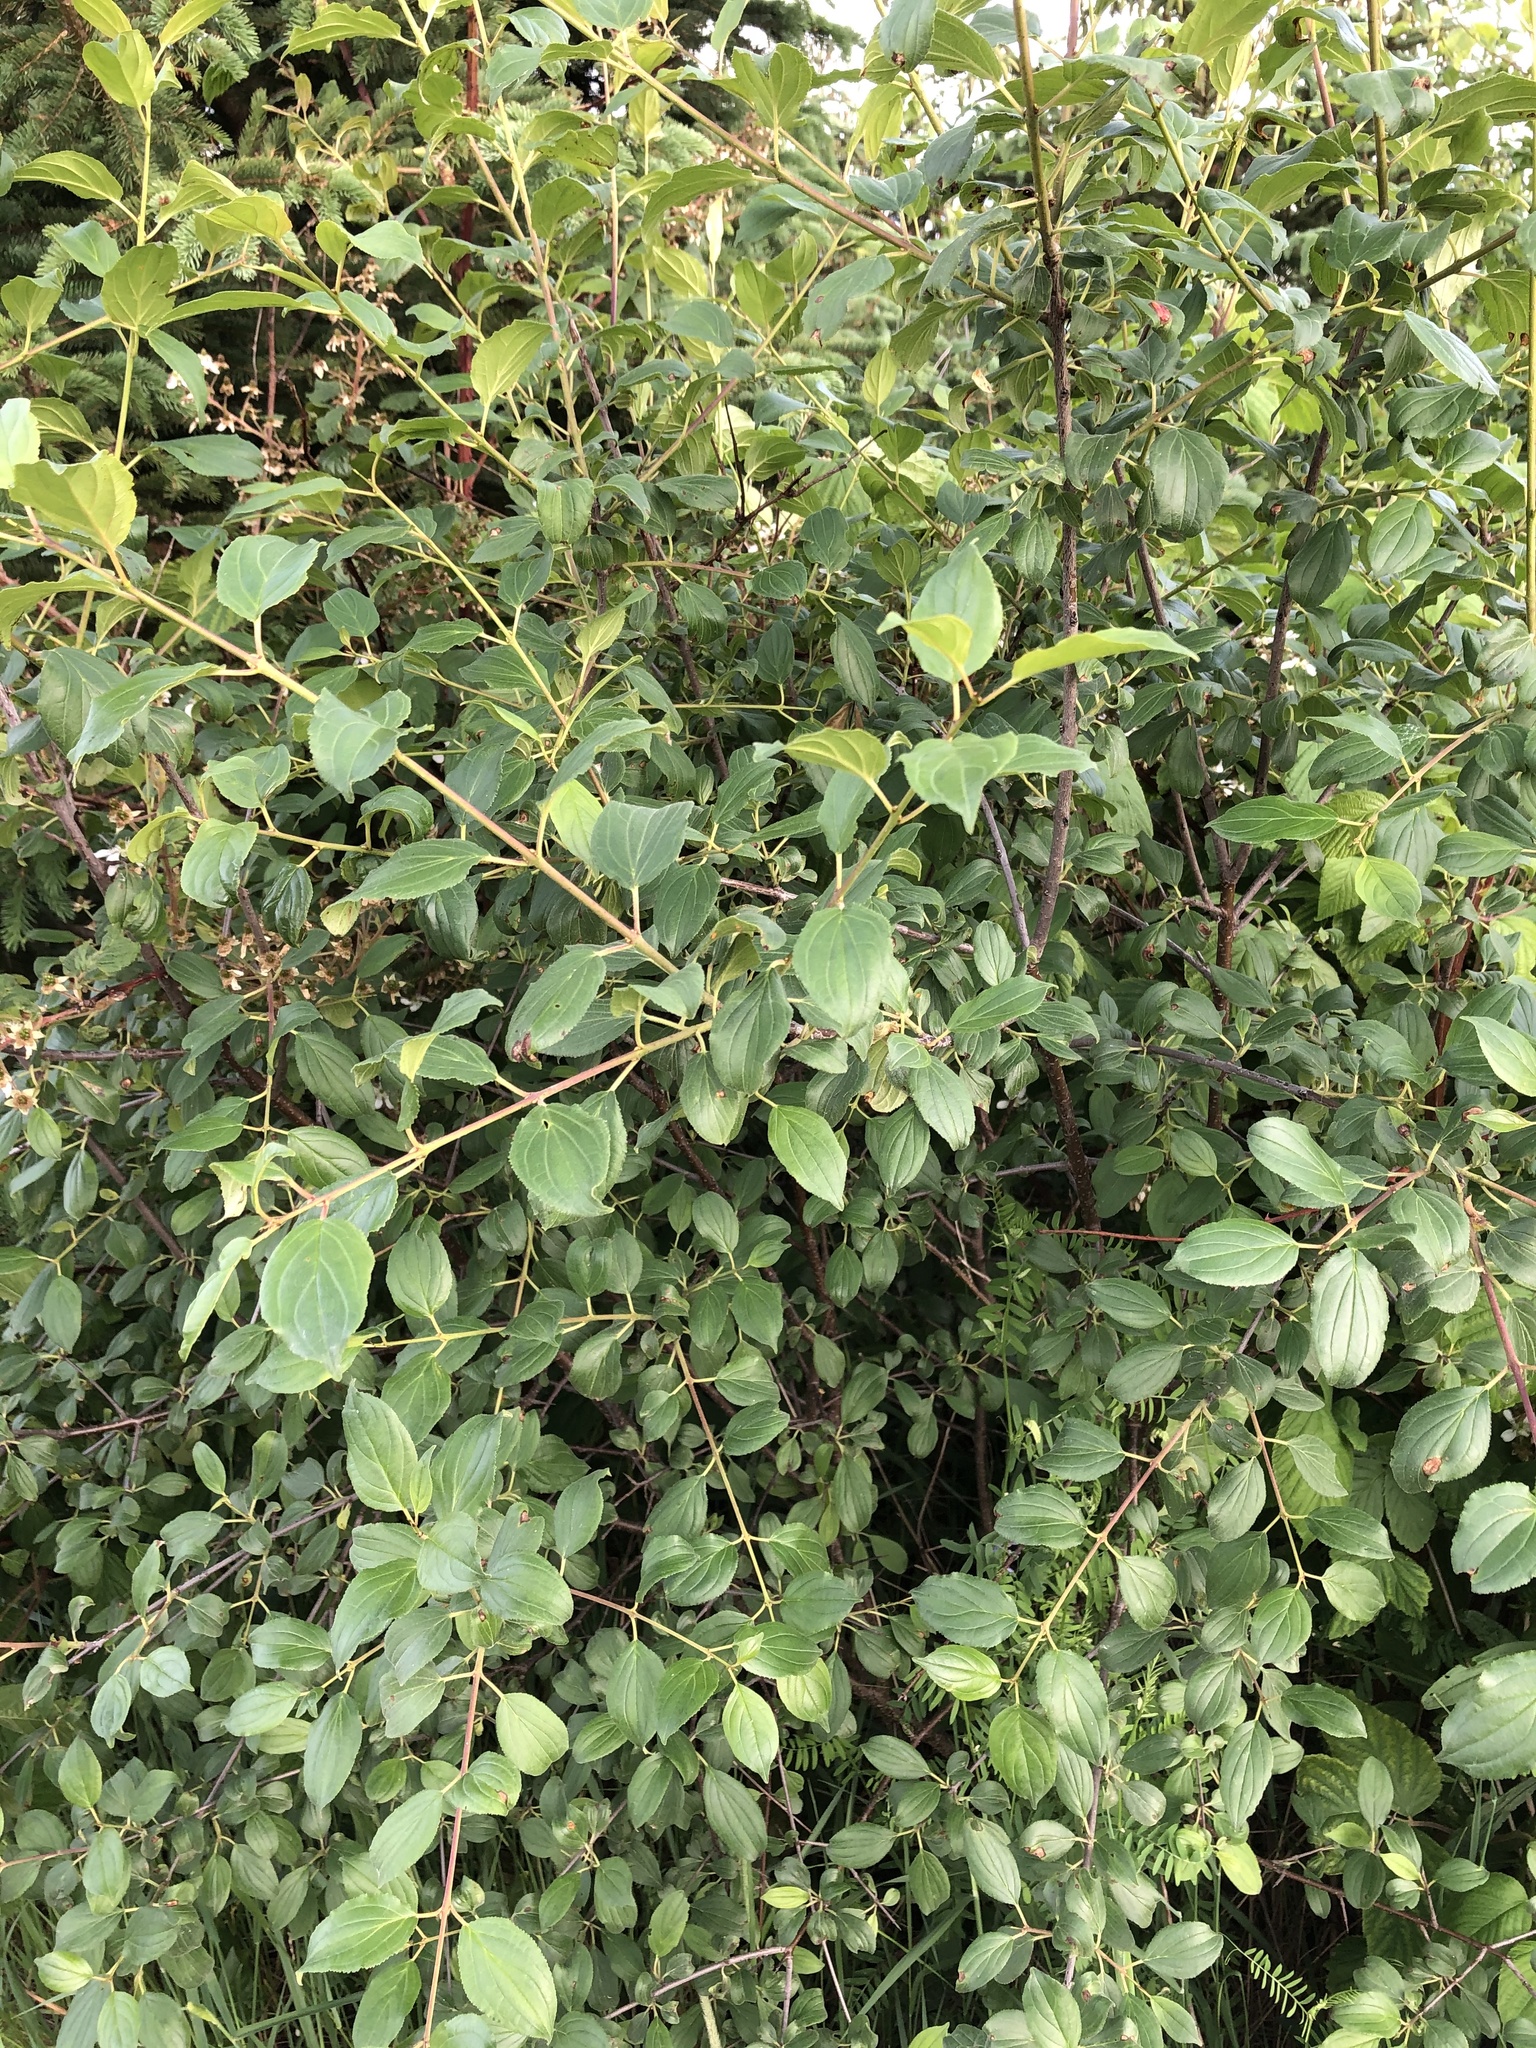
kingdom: Plantae
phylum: Tracheophyta
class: Magnoliopsida
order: Rosales
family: Rhamnaceae
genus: Rhamnus
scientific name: Rhamnus cathartica
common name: Common buckthorn
